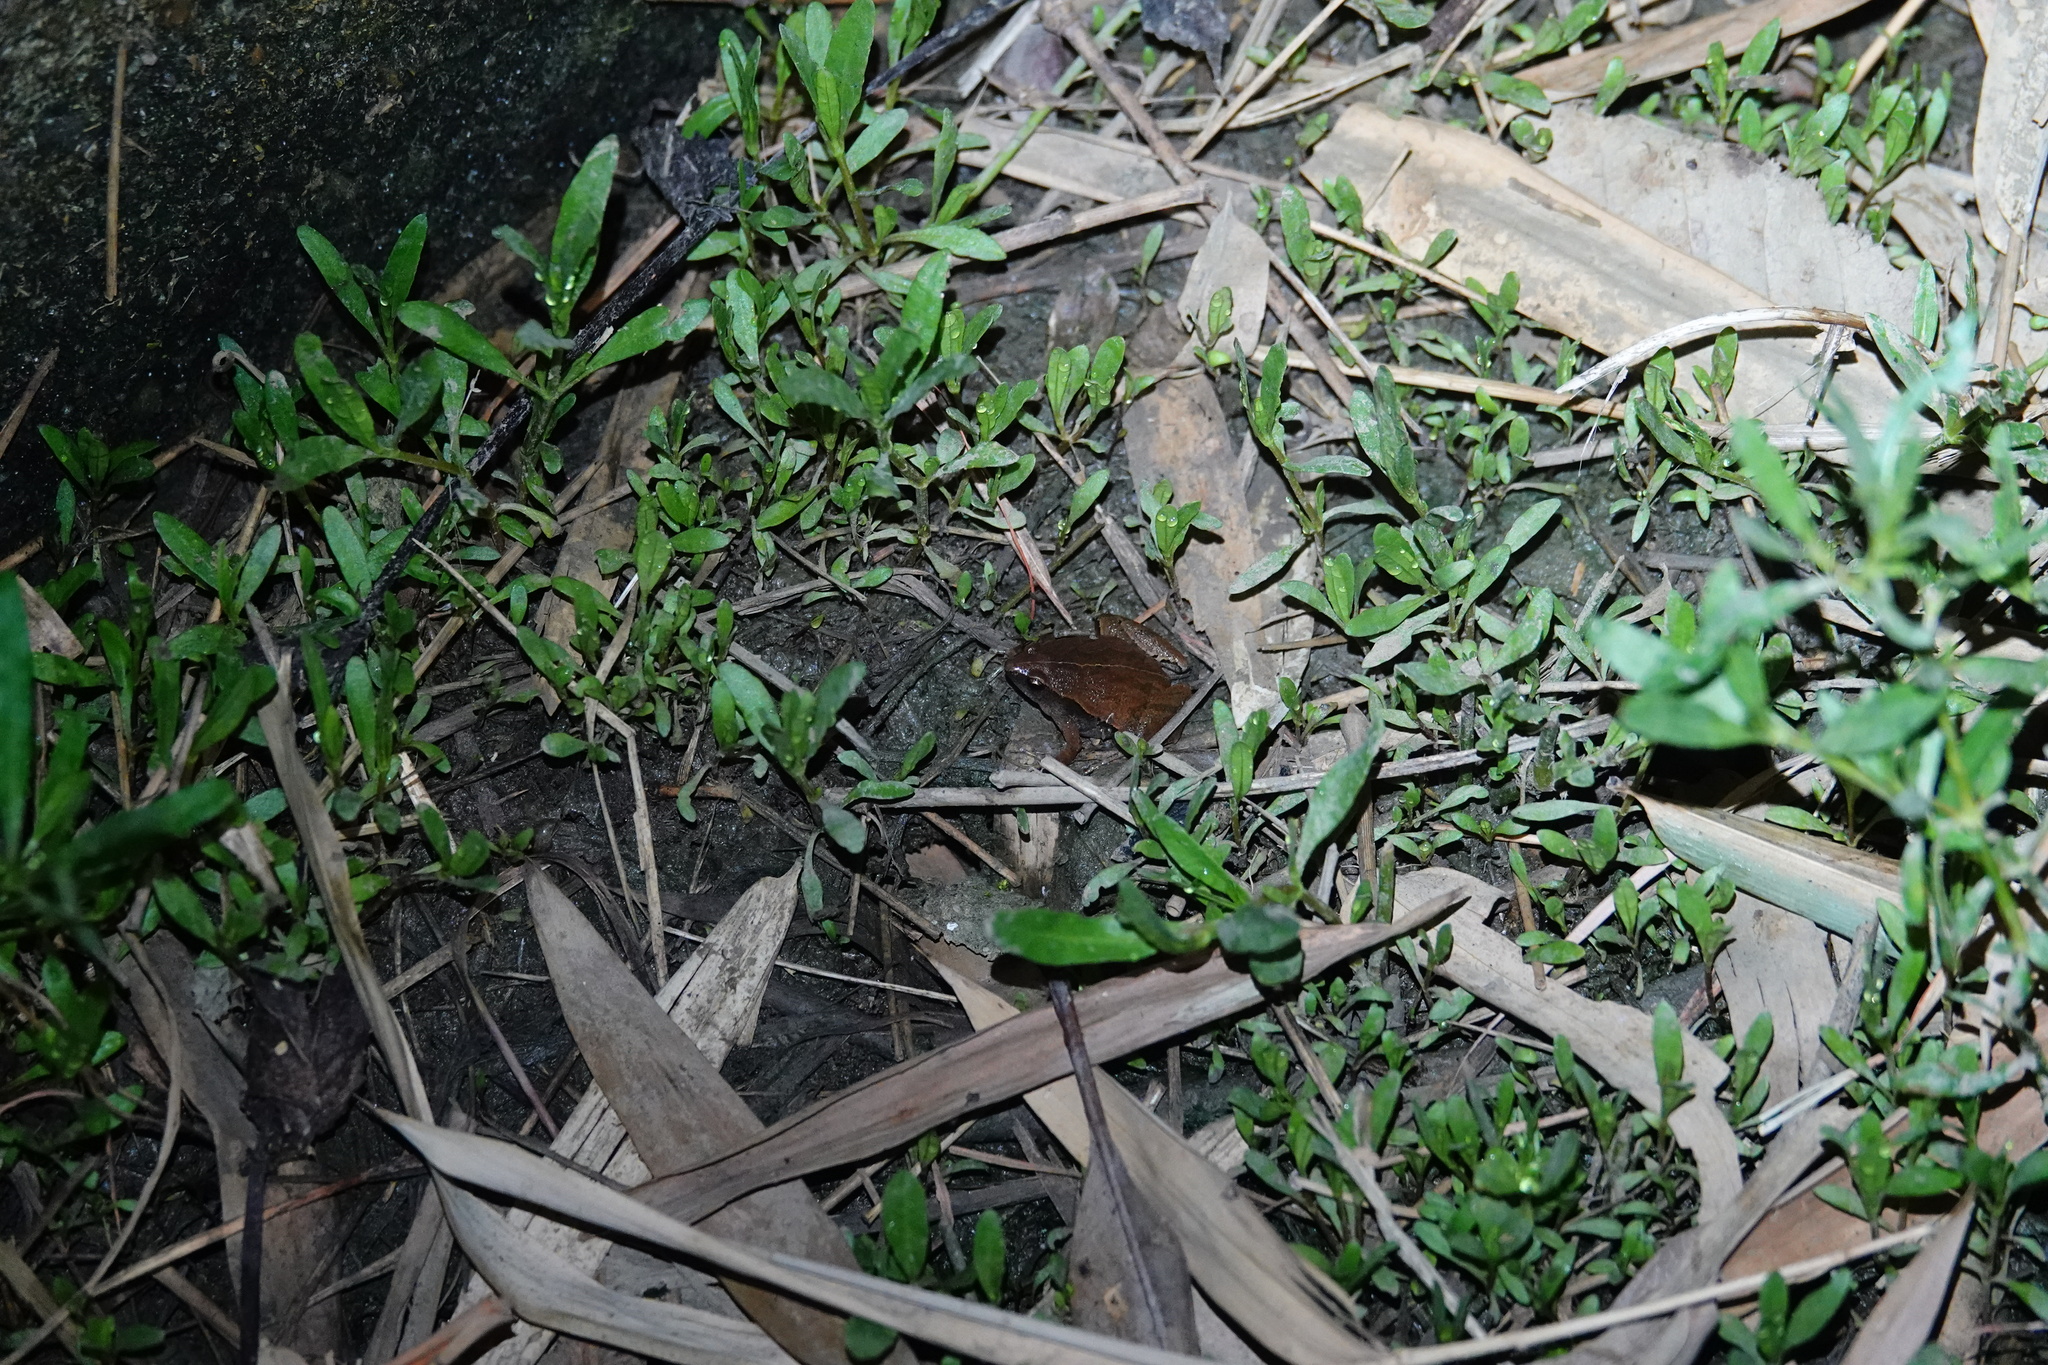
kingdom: Animalia
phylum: Chordata
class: Amphibia
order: Anura
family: Microhylidae
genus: Microhyla
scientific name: Microhyla heymonsi
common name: Taiwan rice frog,dark sided chorus frog
